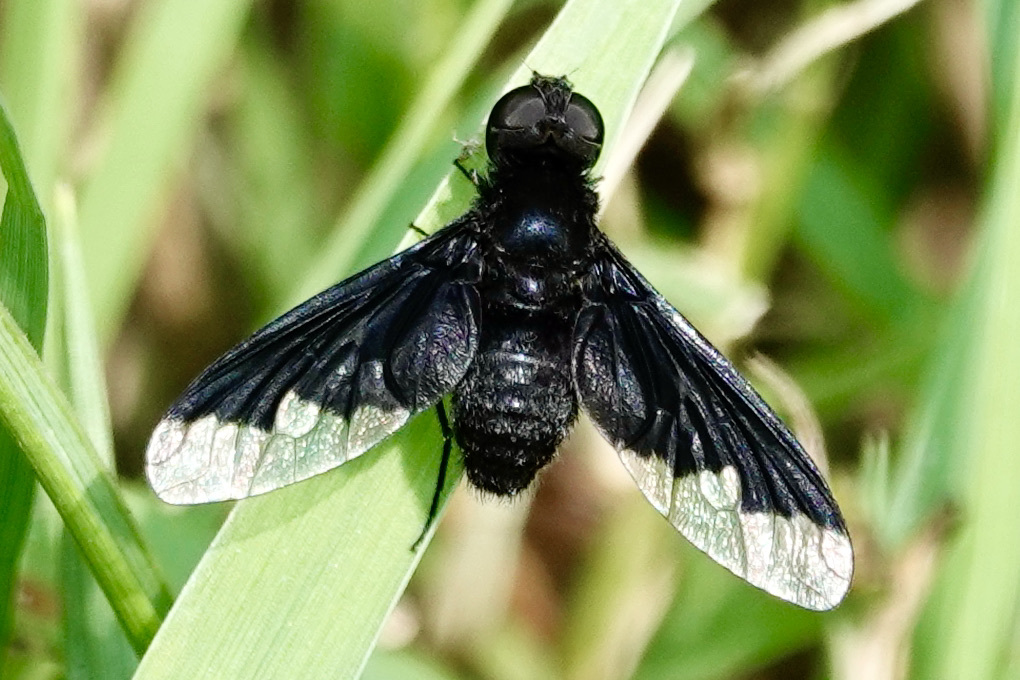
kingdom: Animalia
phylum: Arthropoda
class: Insecta
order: Diptera
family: Bombyliidae
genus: Anthrax
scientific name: Anthrax analis
